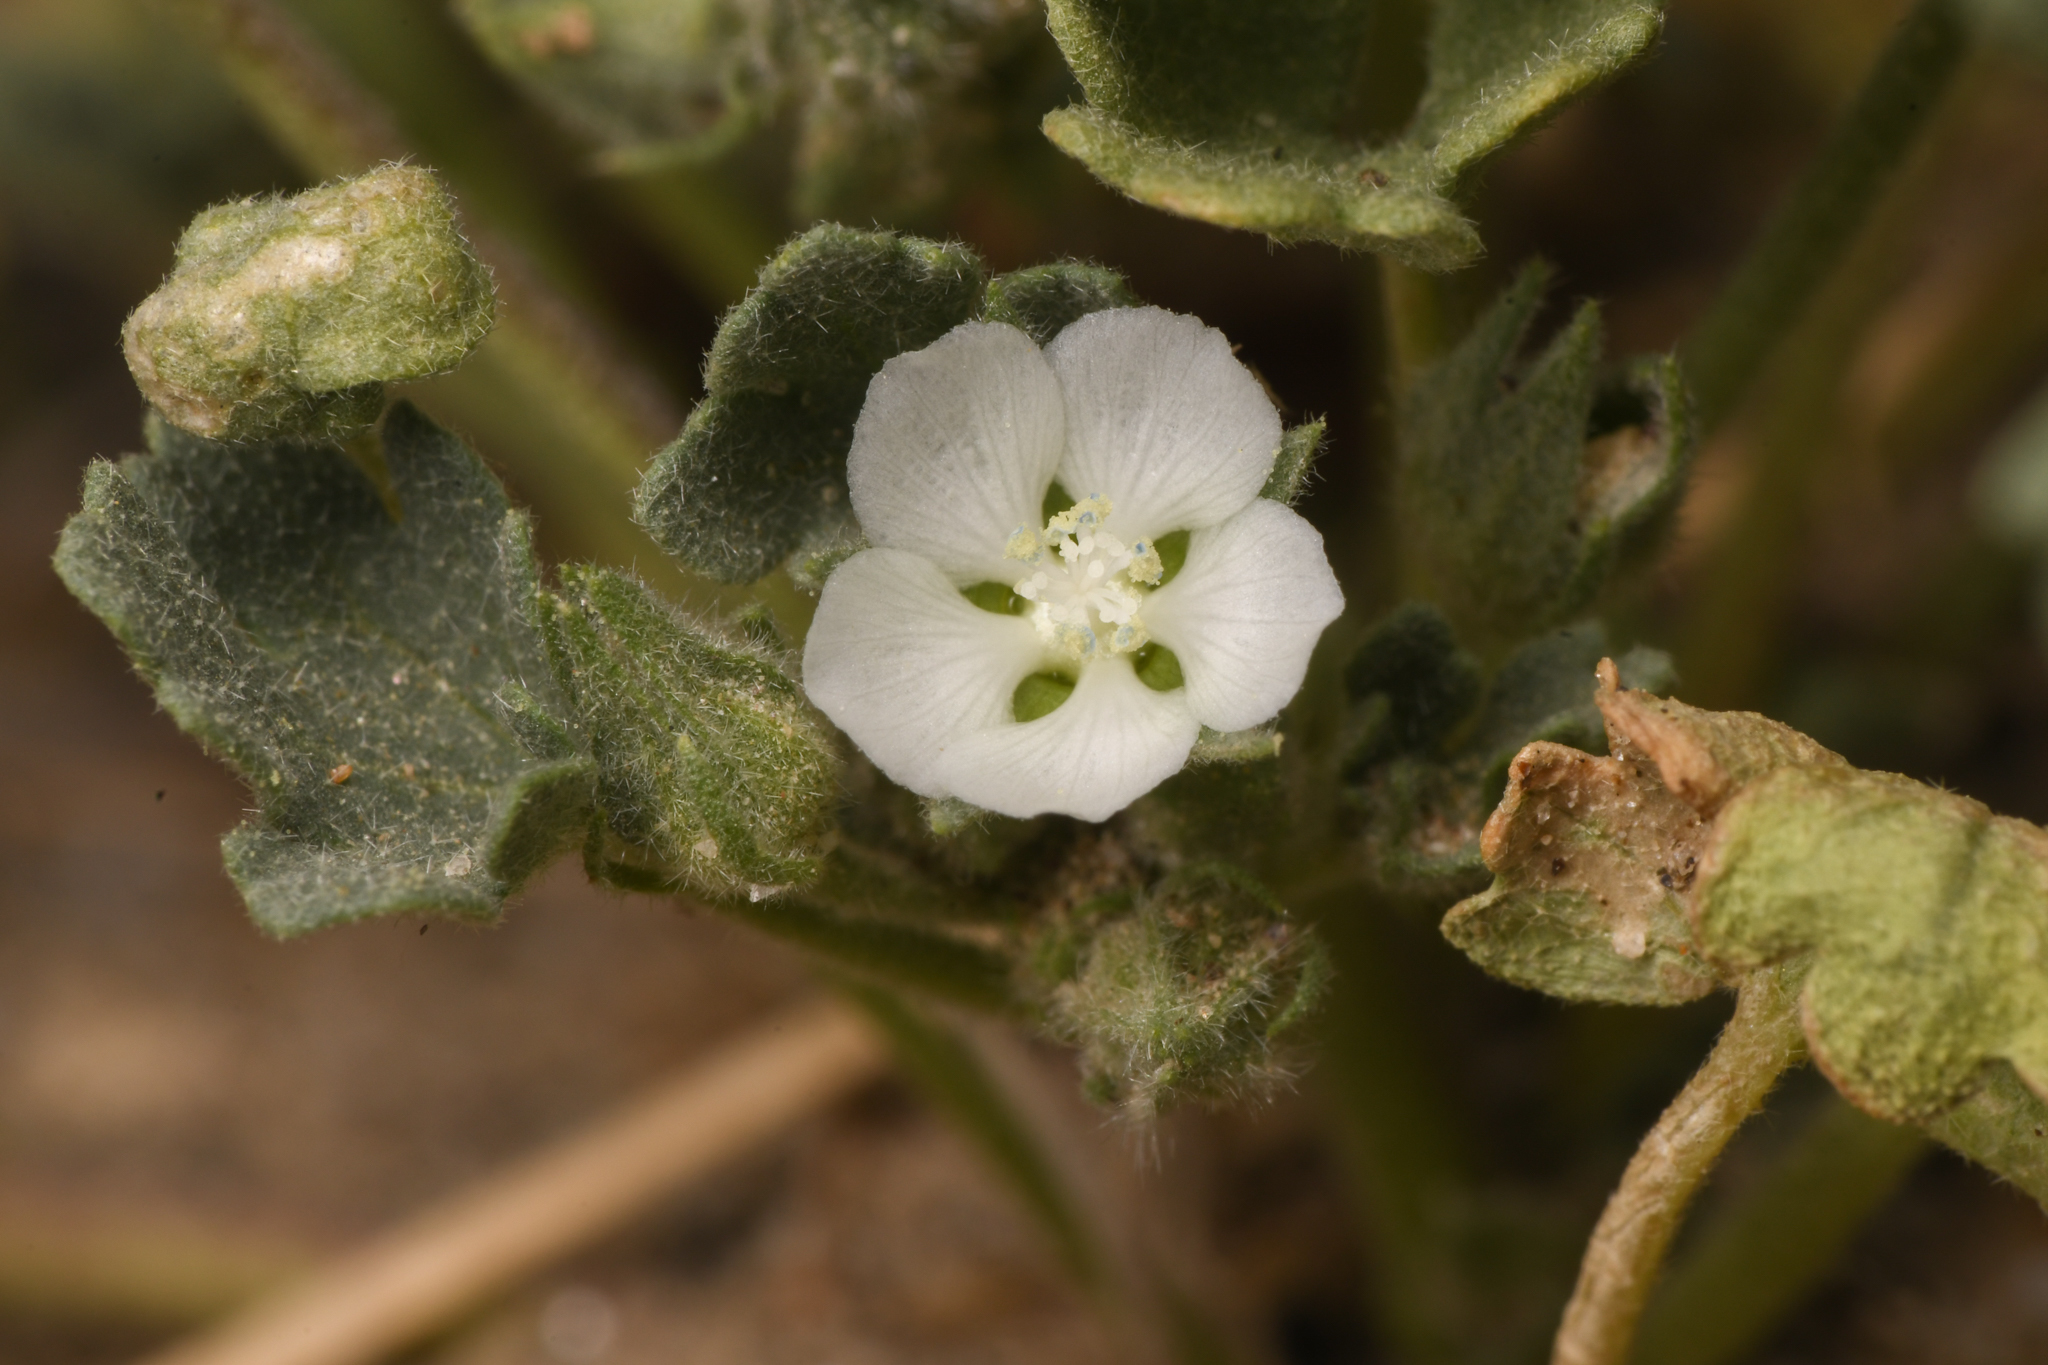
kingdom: Plantae
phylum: Tracheophyta
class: Magnoliopsida
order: Malvales
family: Malvaceae
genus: Eremalche
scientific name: Eremalche exilis
